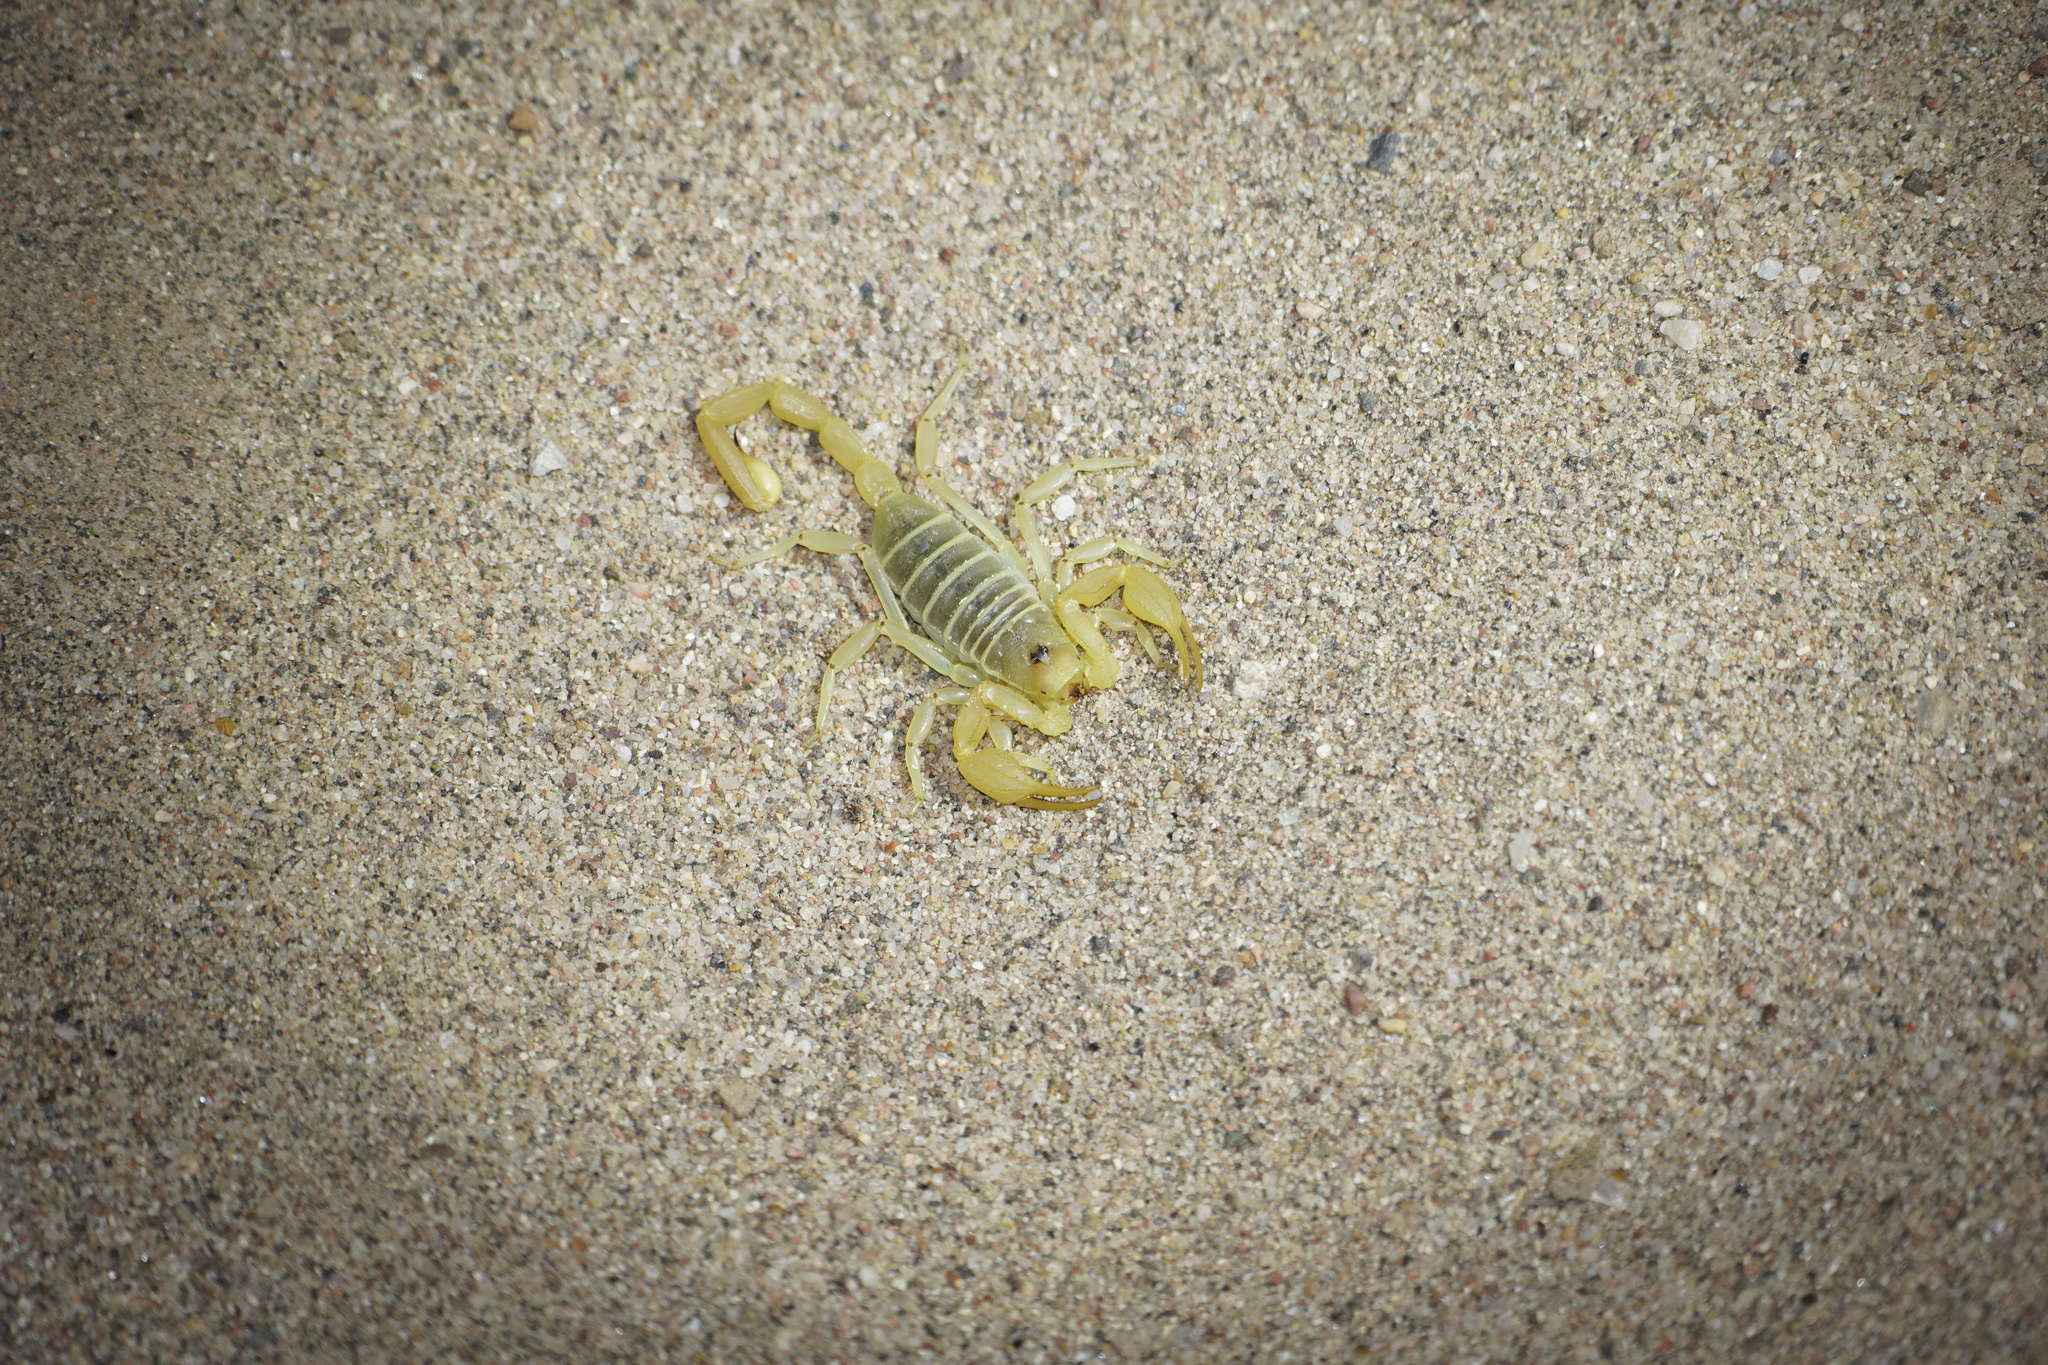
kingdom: Animalia
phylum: Arthropoda
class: Arachnida
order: Scorpiones
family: Vaejovidae
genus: Smeringurus
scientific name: Smeringurus mesaensis
